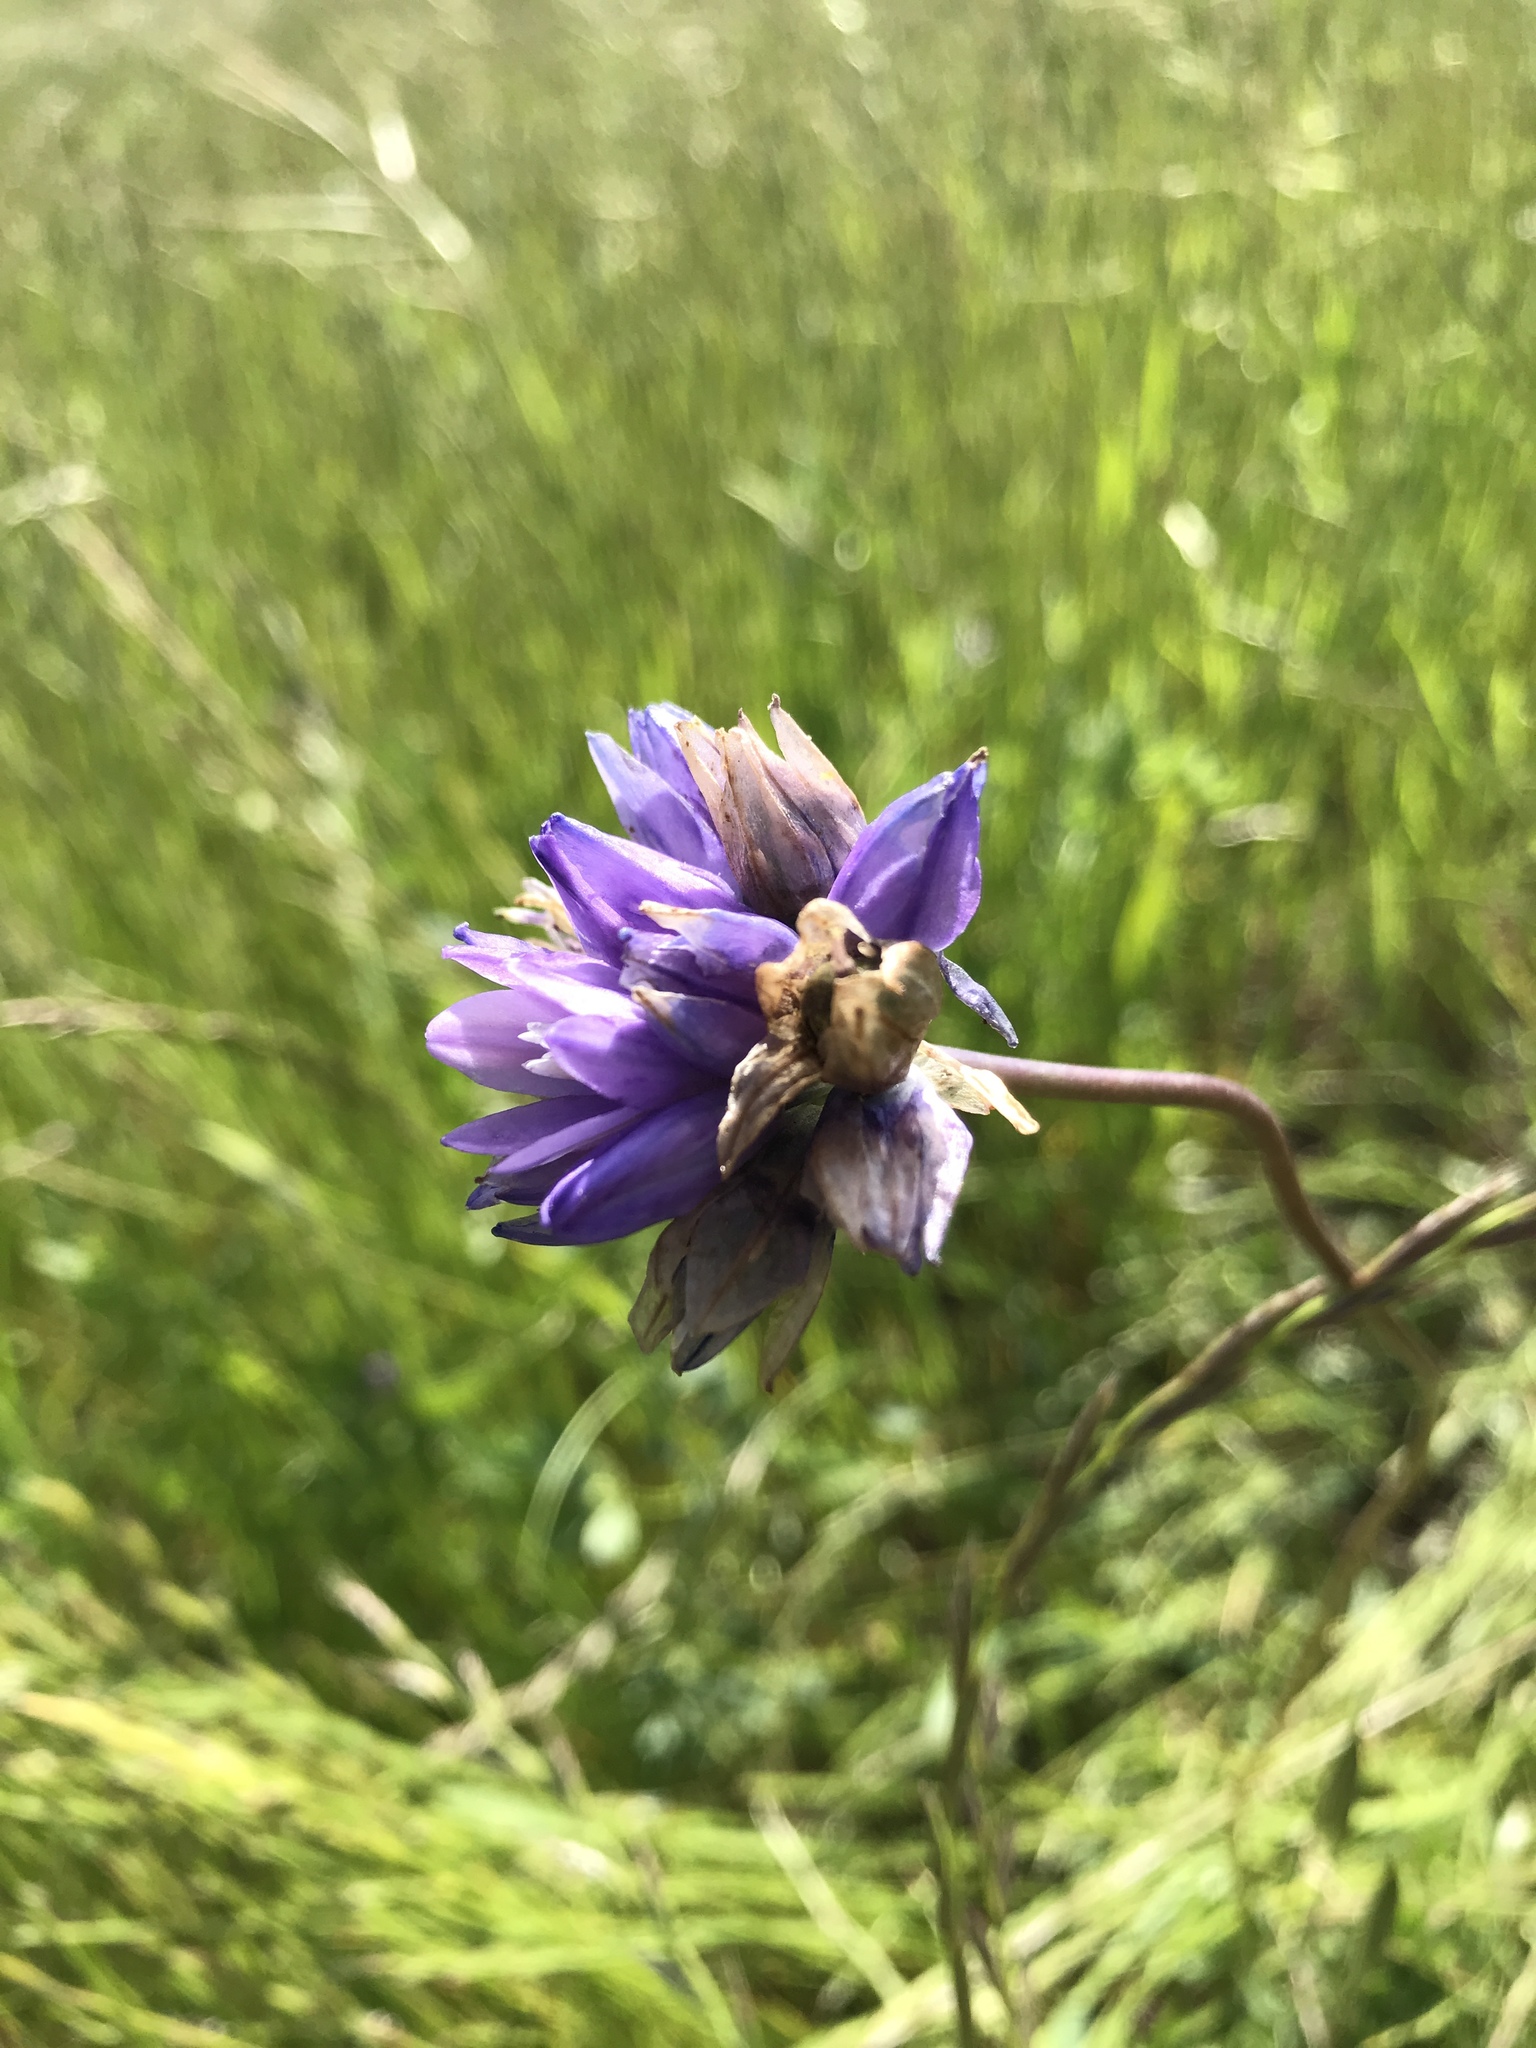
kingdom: Plantae
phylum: Tracheophyta
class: Liliopsida
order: Asparagales
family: Asparagaceae
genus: Dipterostemon
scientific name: Dipterostemon capitatus
